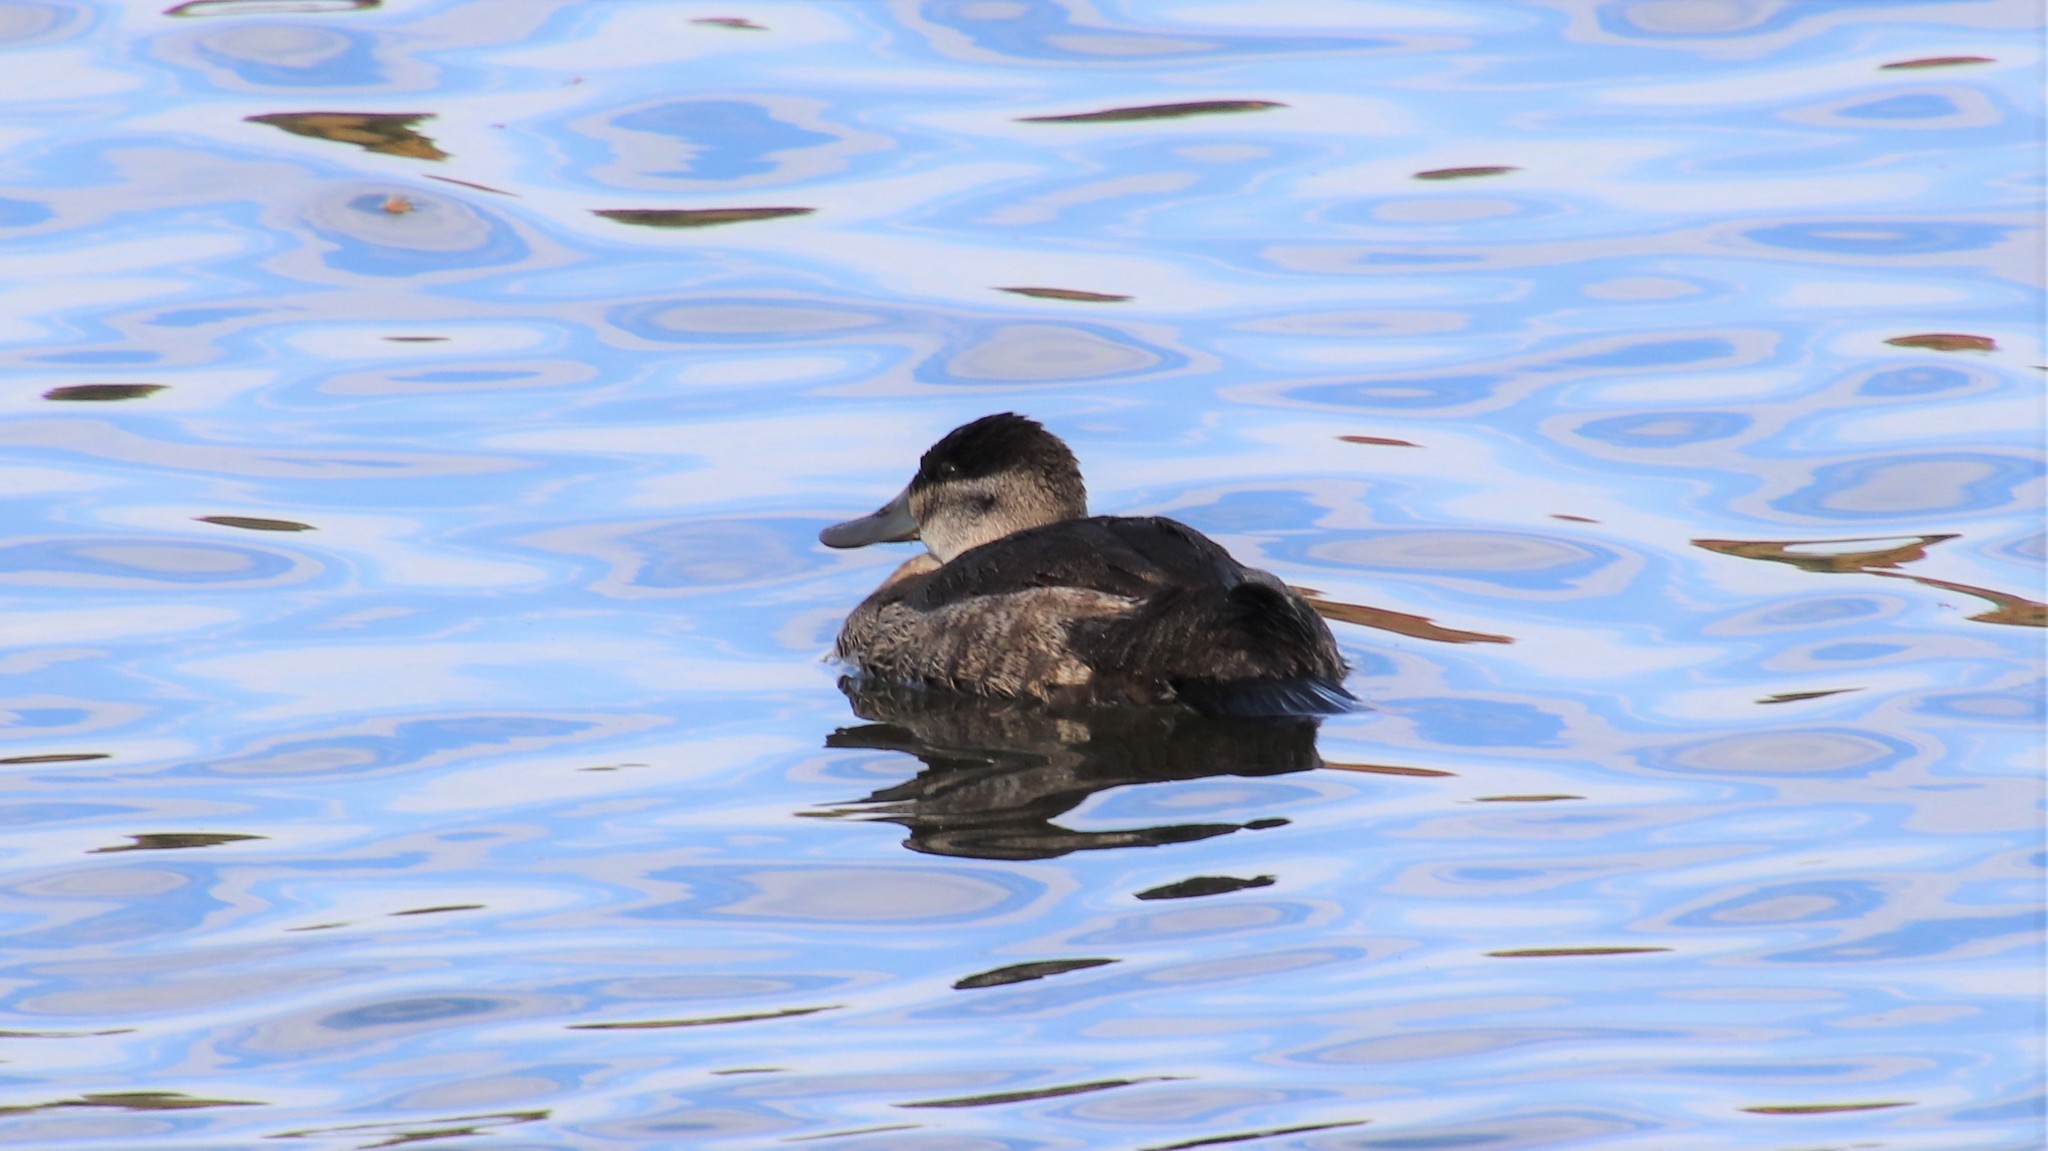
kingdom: Animalia
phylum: Chordata
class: Aves
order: Anseriformes
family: Anatidae
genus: Oxyura
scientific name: Oxyura jamaicensis
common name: Ruddy duck
